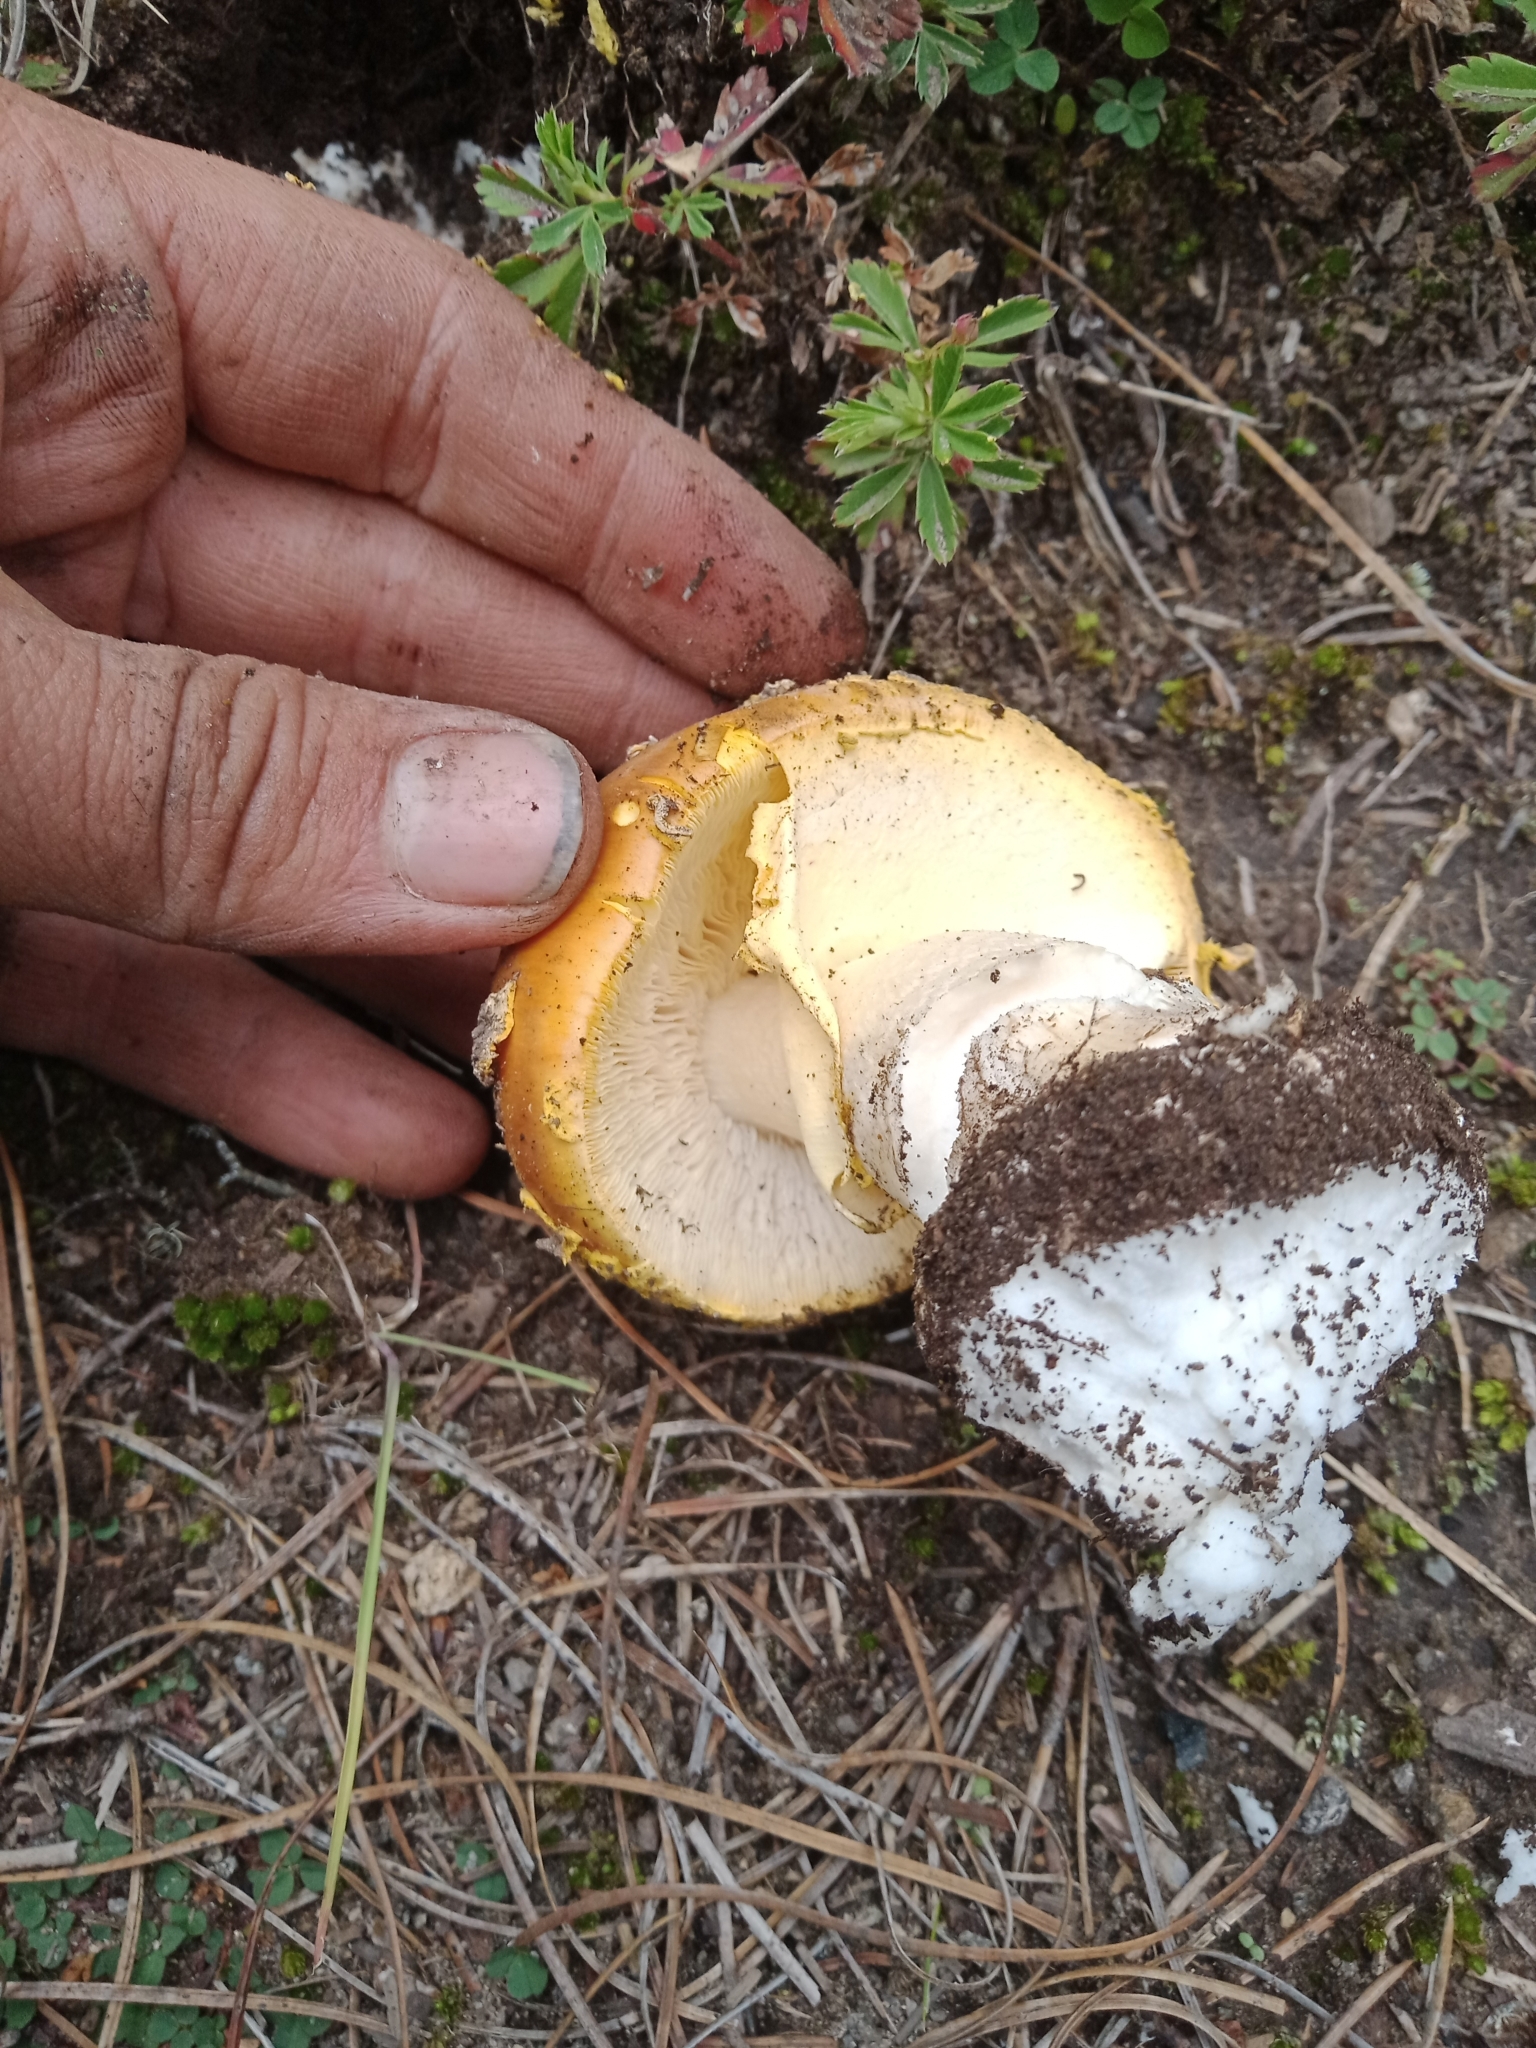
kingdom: Fungi
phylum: Basidiomycota
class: Agaricomycetes
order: Agaricales
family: Amanitaceae
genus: Amanita
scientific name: Amanita muscaria
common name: Fly agaric
